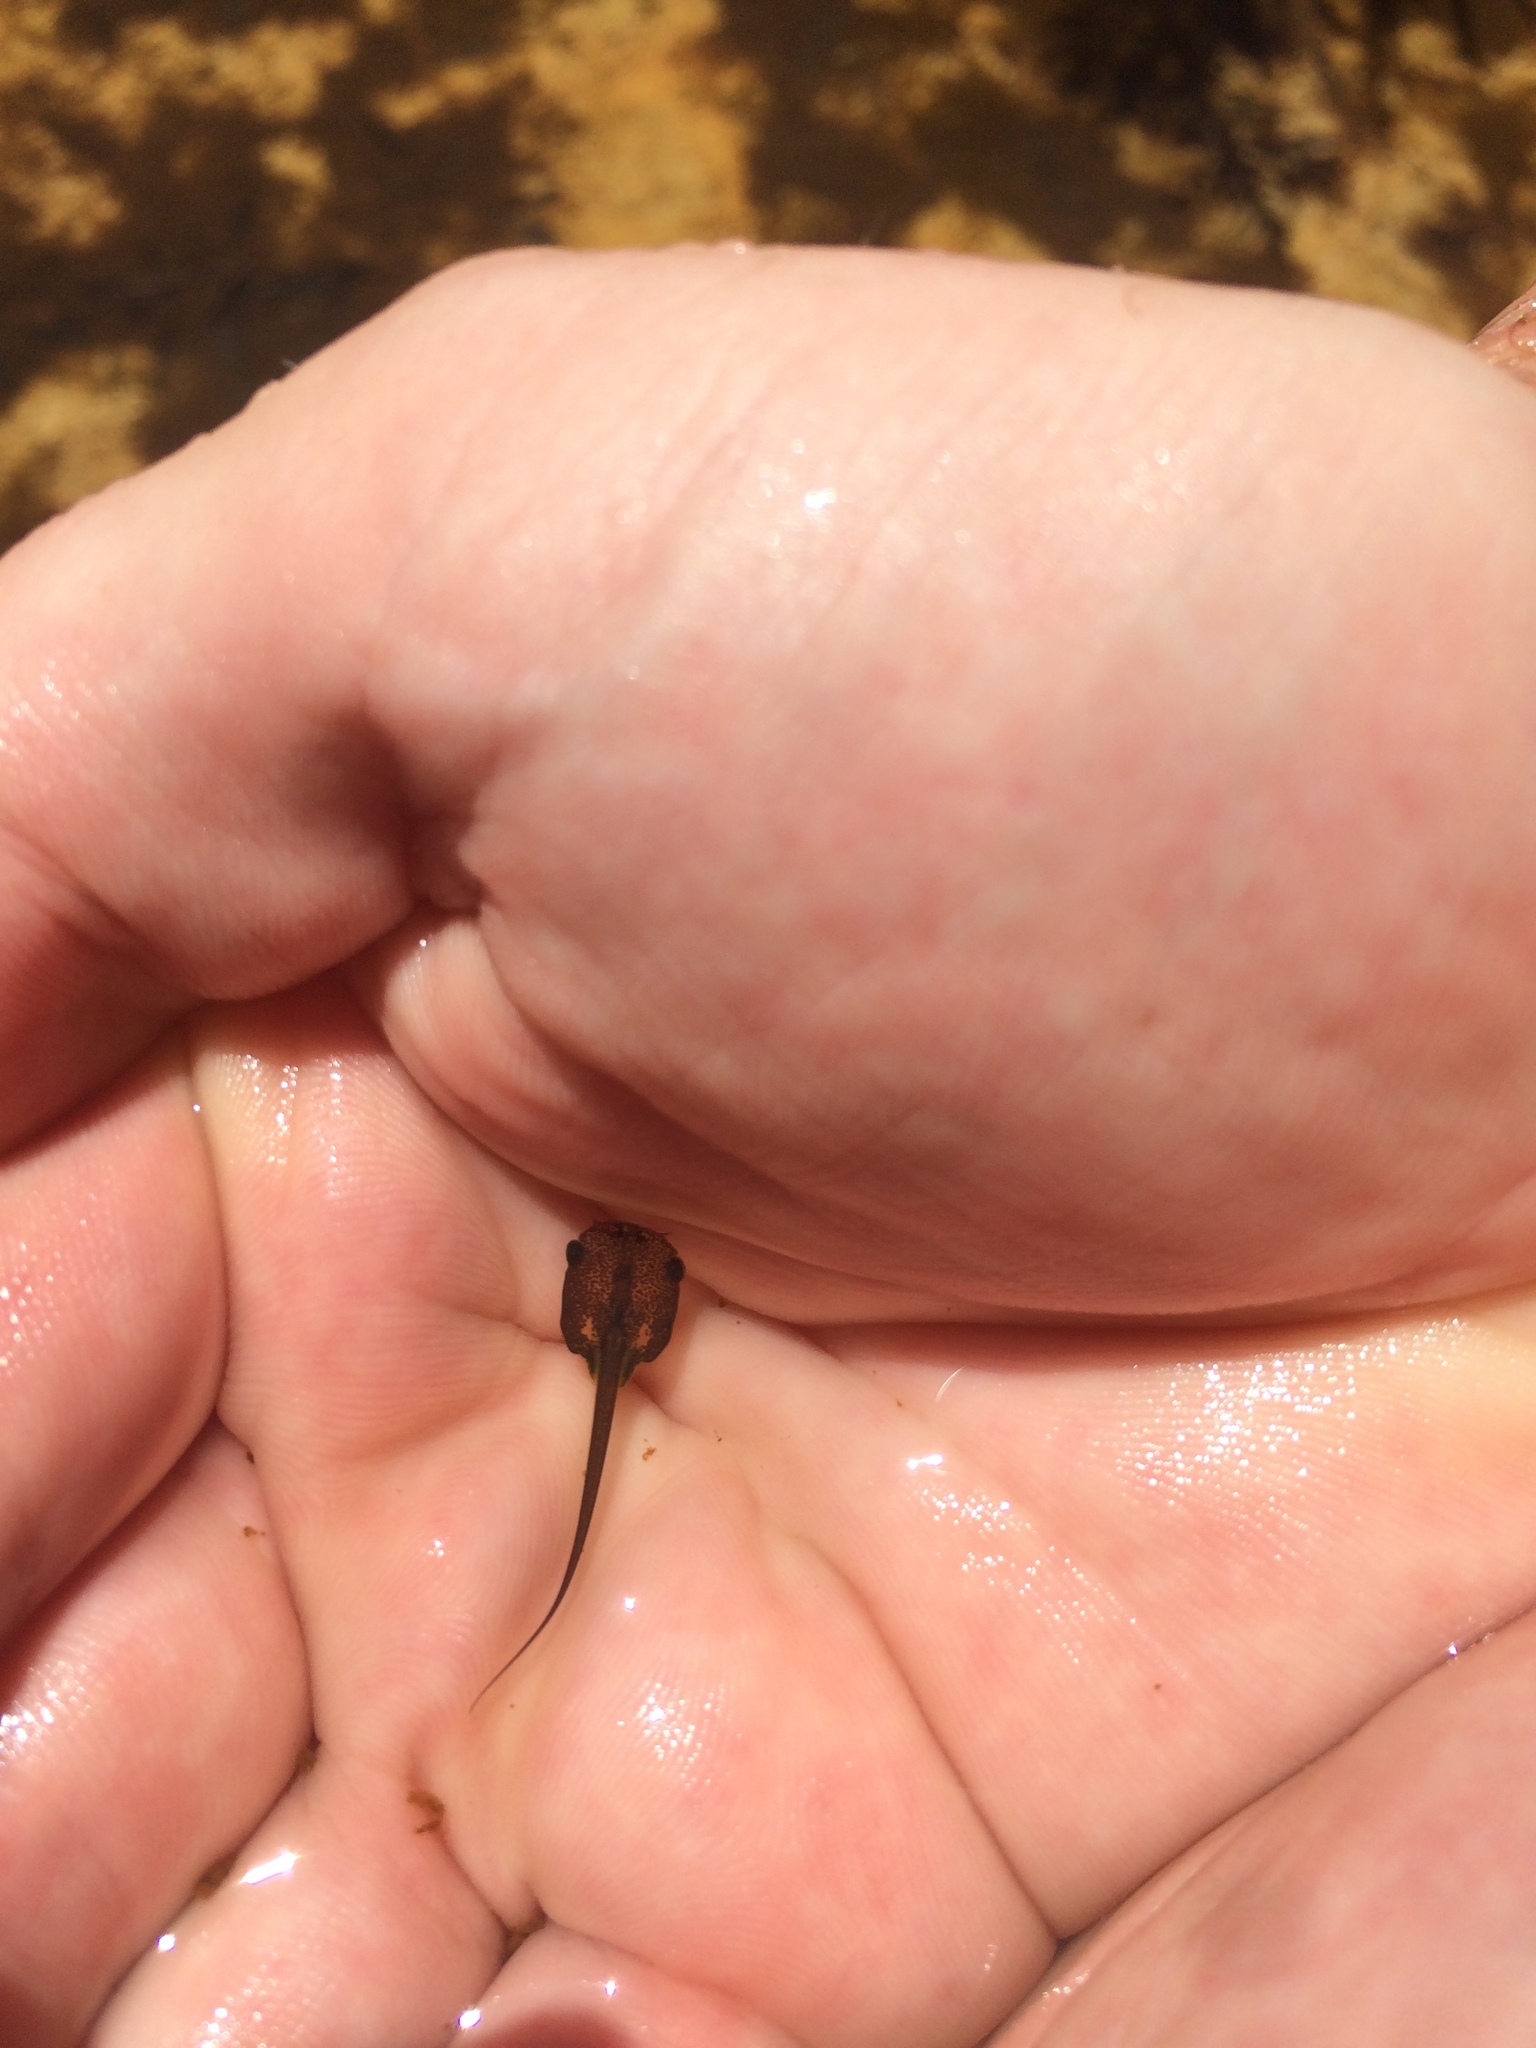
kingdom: Animalia
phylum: Chordata
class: Amphibia
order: Anura
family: Pipidae
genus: Xenopus
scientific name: Xenopus laevis
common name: African clawed frog
